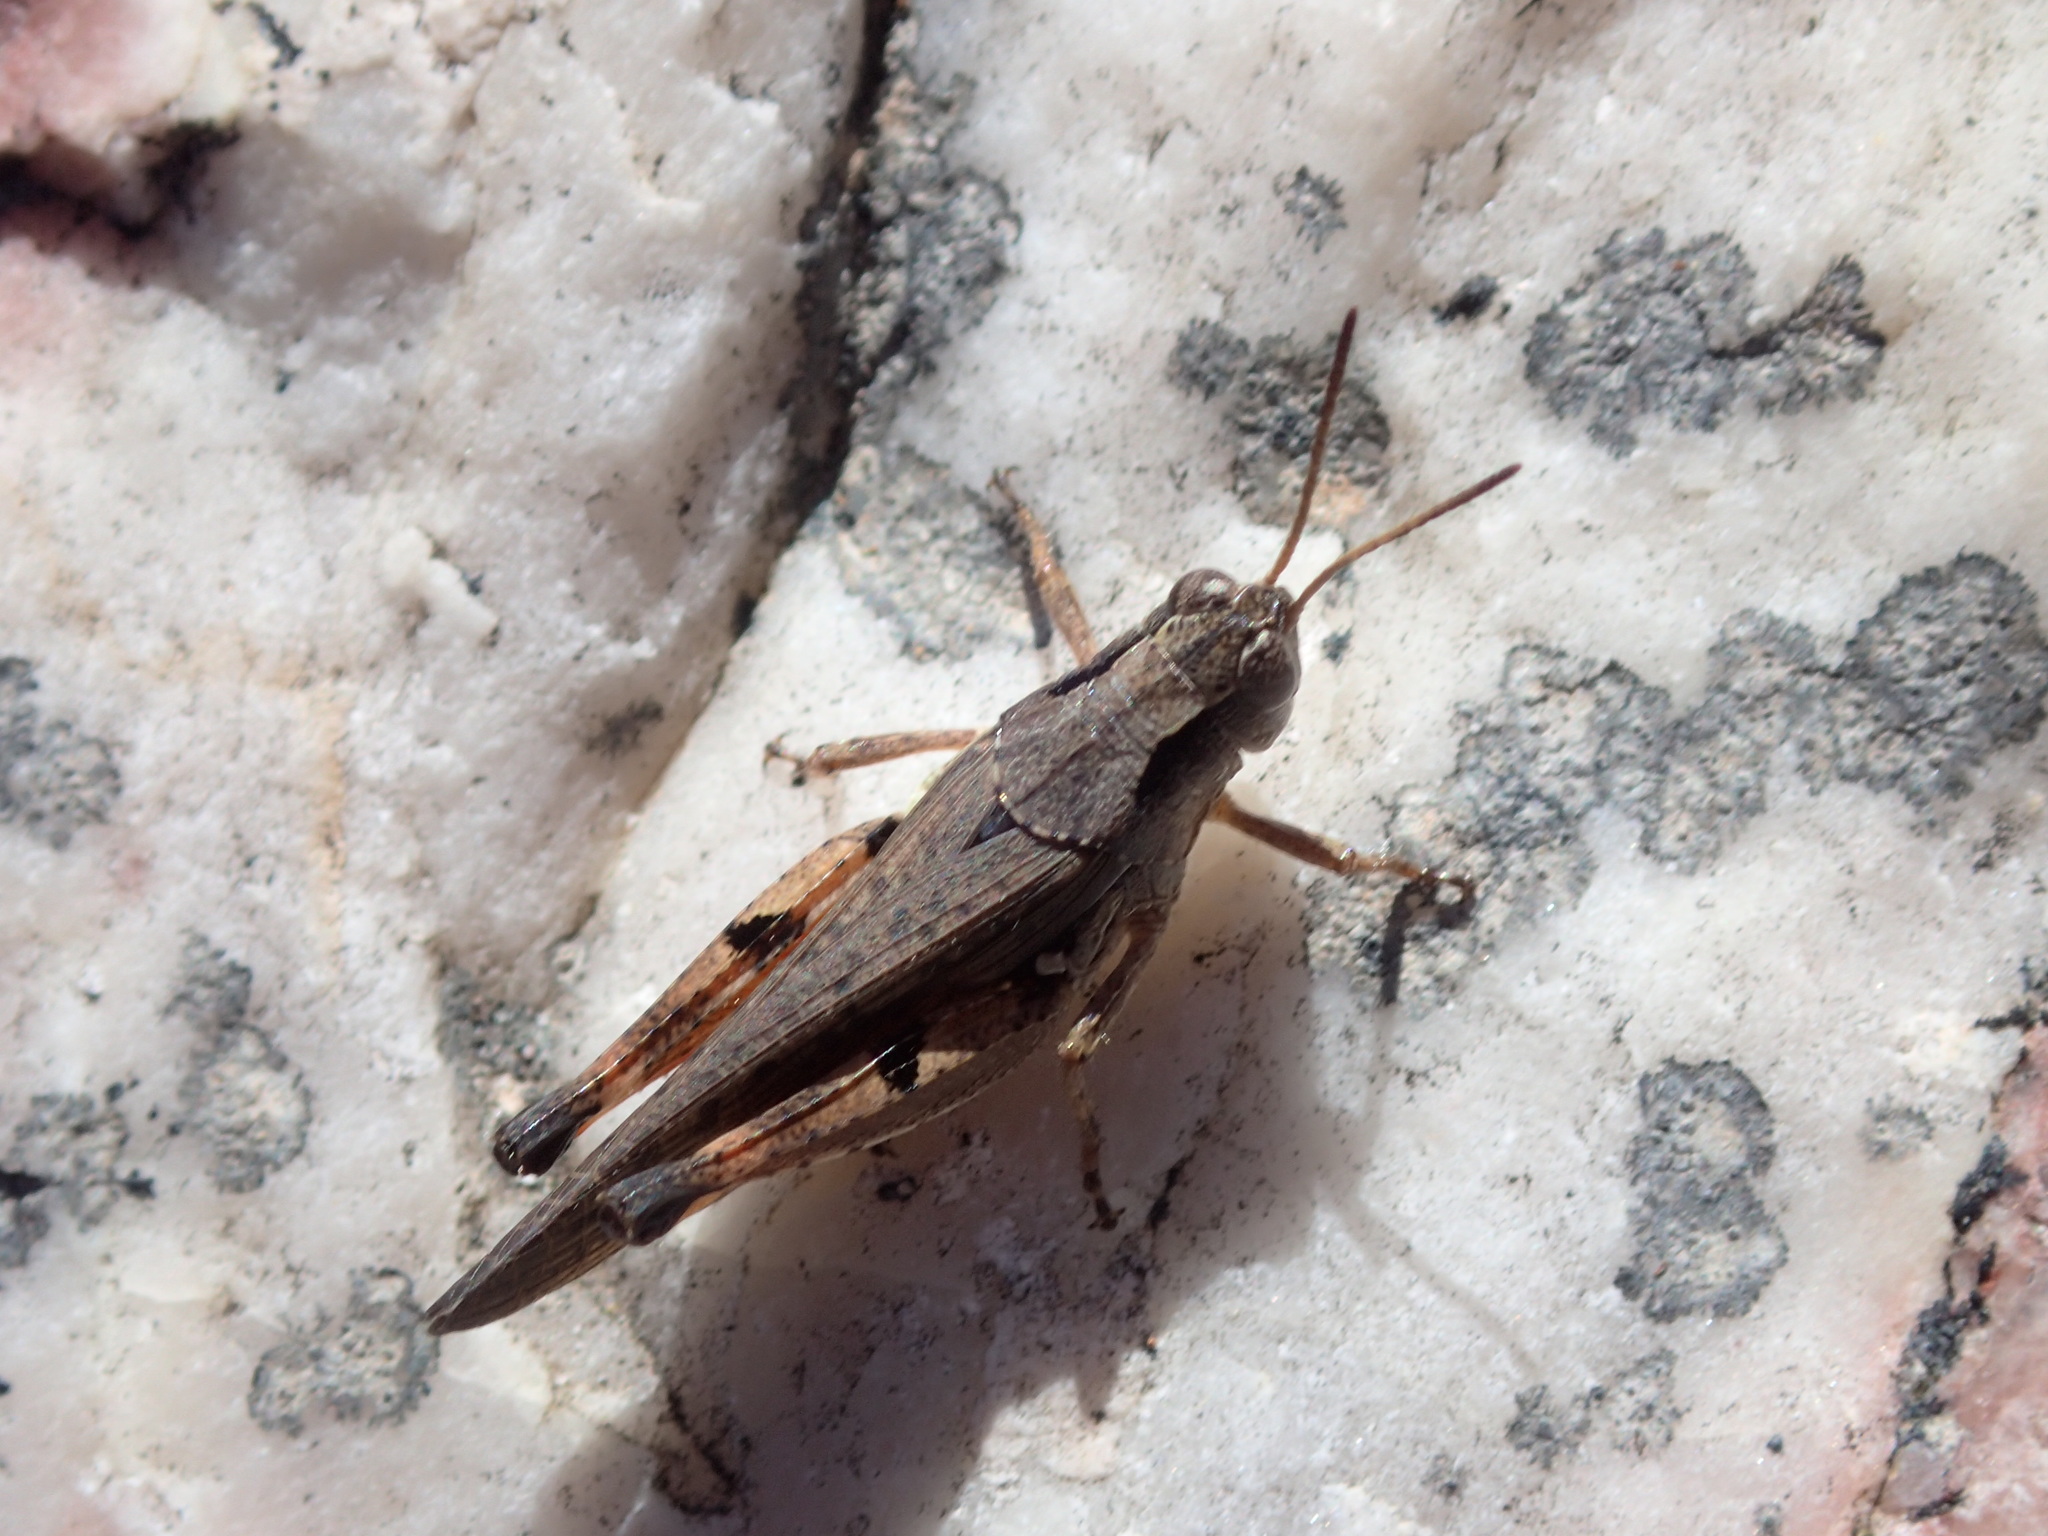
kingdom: Animalia
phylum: Arthropoda
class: Insecta
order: Orthoptera
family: Acrididae
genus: Phaulacridium
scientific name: Phaulacridium vittatum
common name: Wingless grasshopper
